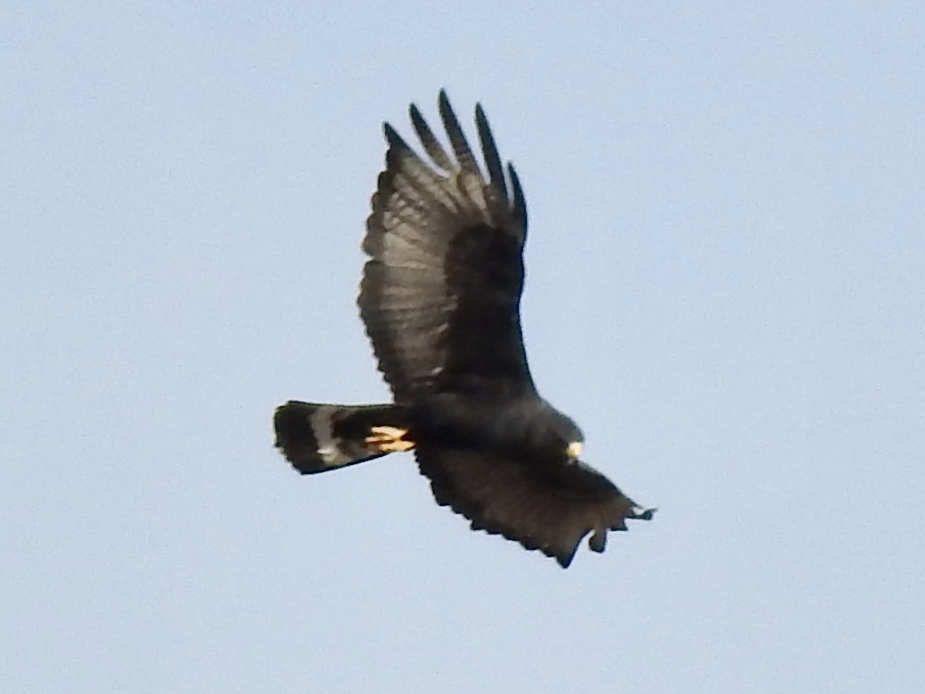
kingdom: Animalia
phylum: Chordata
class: Aves
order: Accipitriformes
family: Accipitridae
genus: Buteo
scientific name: Buteo albonotatus
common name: Zone-tailed hawk
